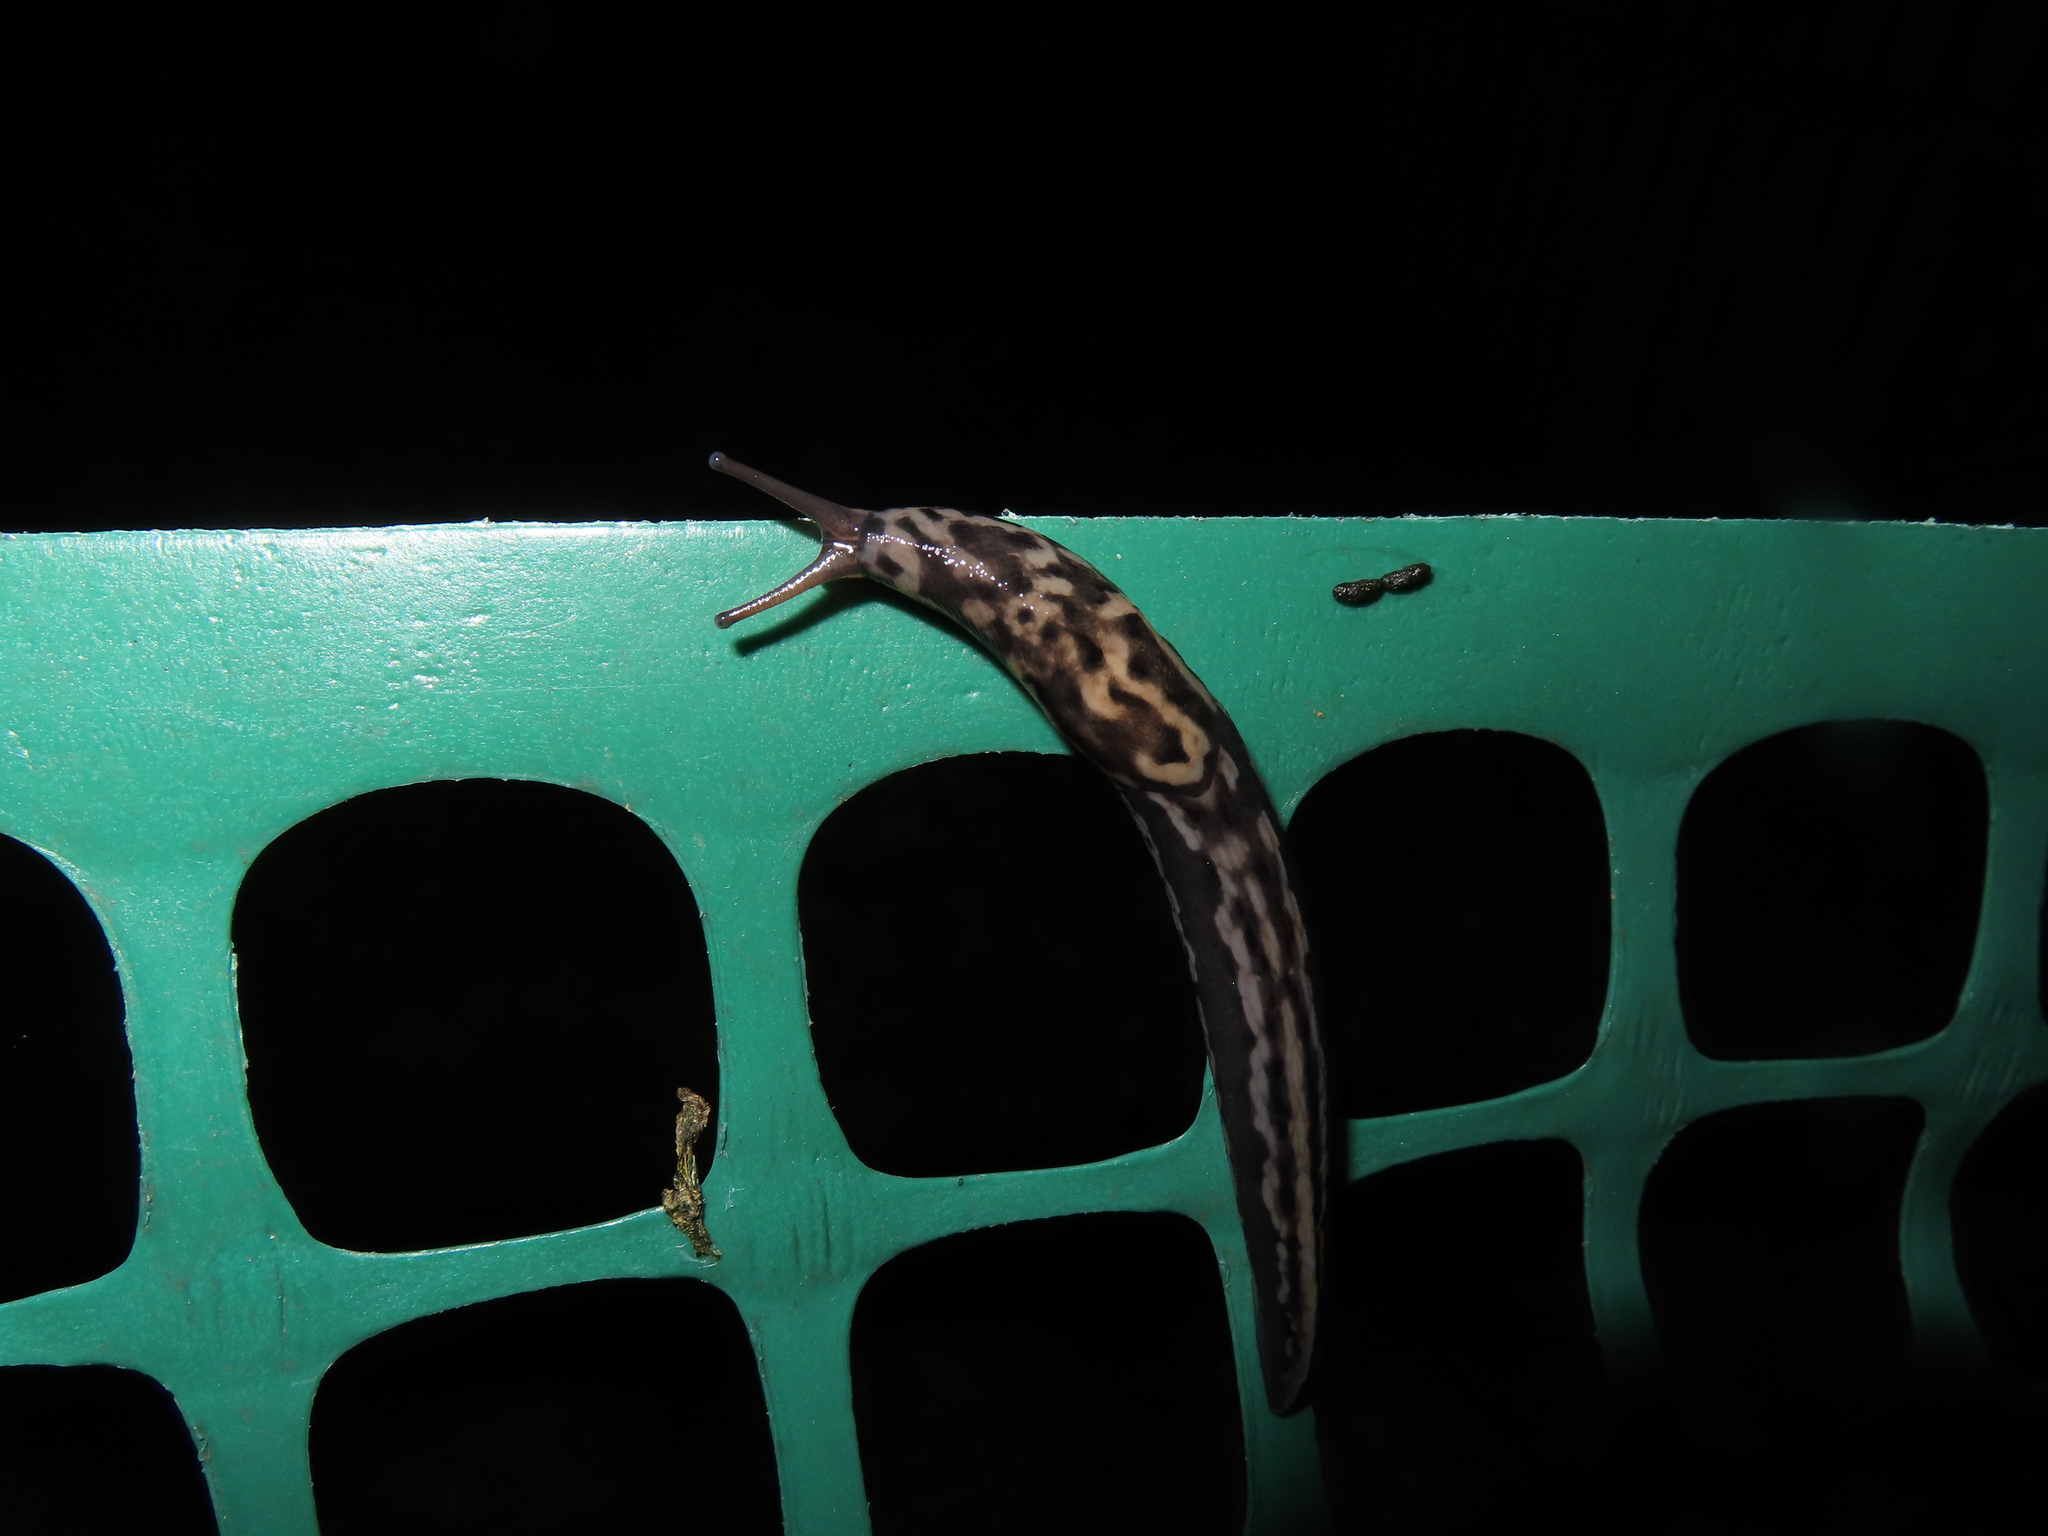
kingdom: Animalia
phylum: Mollusca
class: Gastropoda
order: Stylommatophora
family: Limacidae
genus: Limax
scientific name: Limax maximus
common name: Great grey slug
